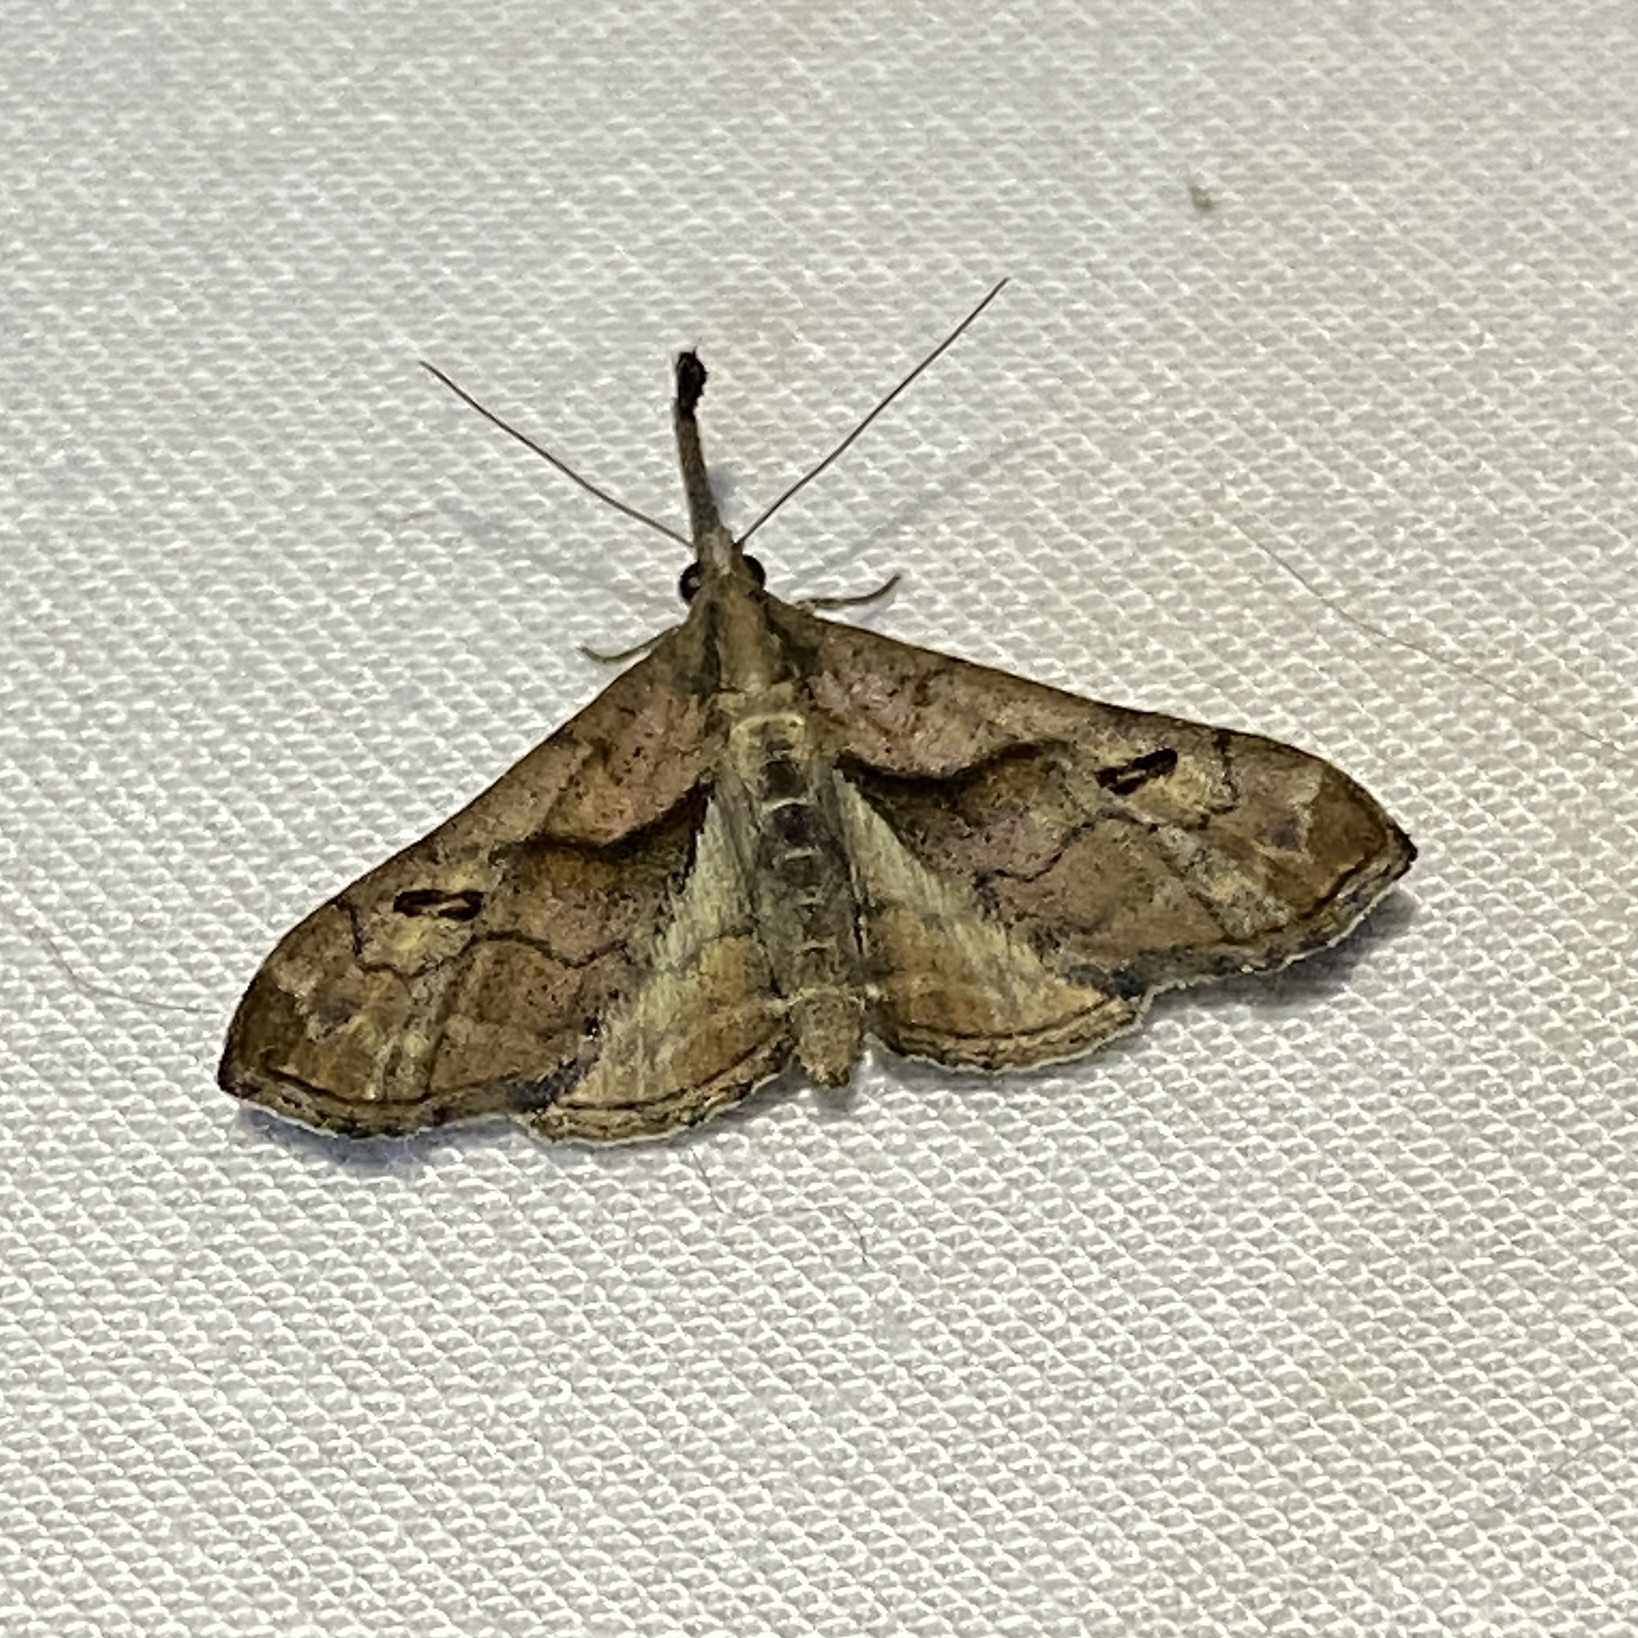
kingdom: Animalia
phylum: Arthropoda
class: Insecta
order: Lepidoptera
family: Erebidae
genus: Palthis
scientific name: Palthis angulalis
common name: Dark-spotted palthis moth
